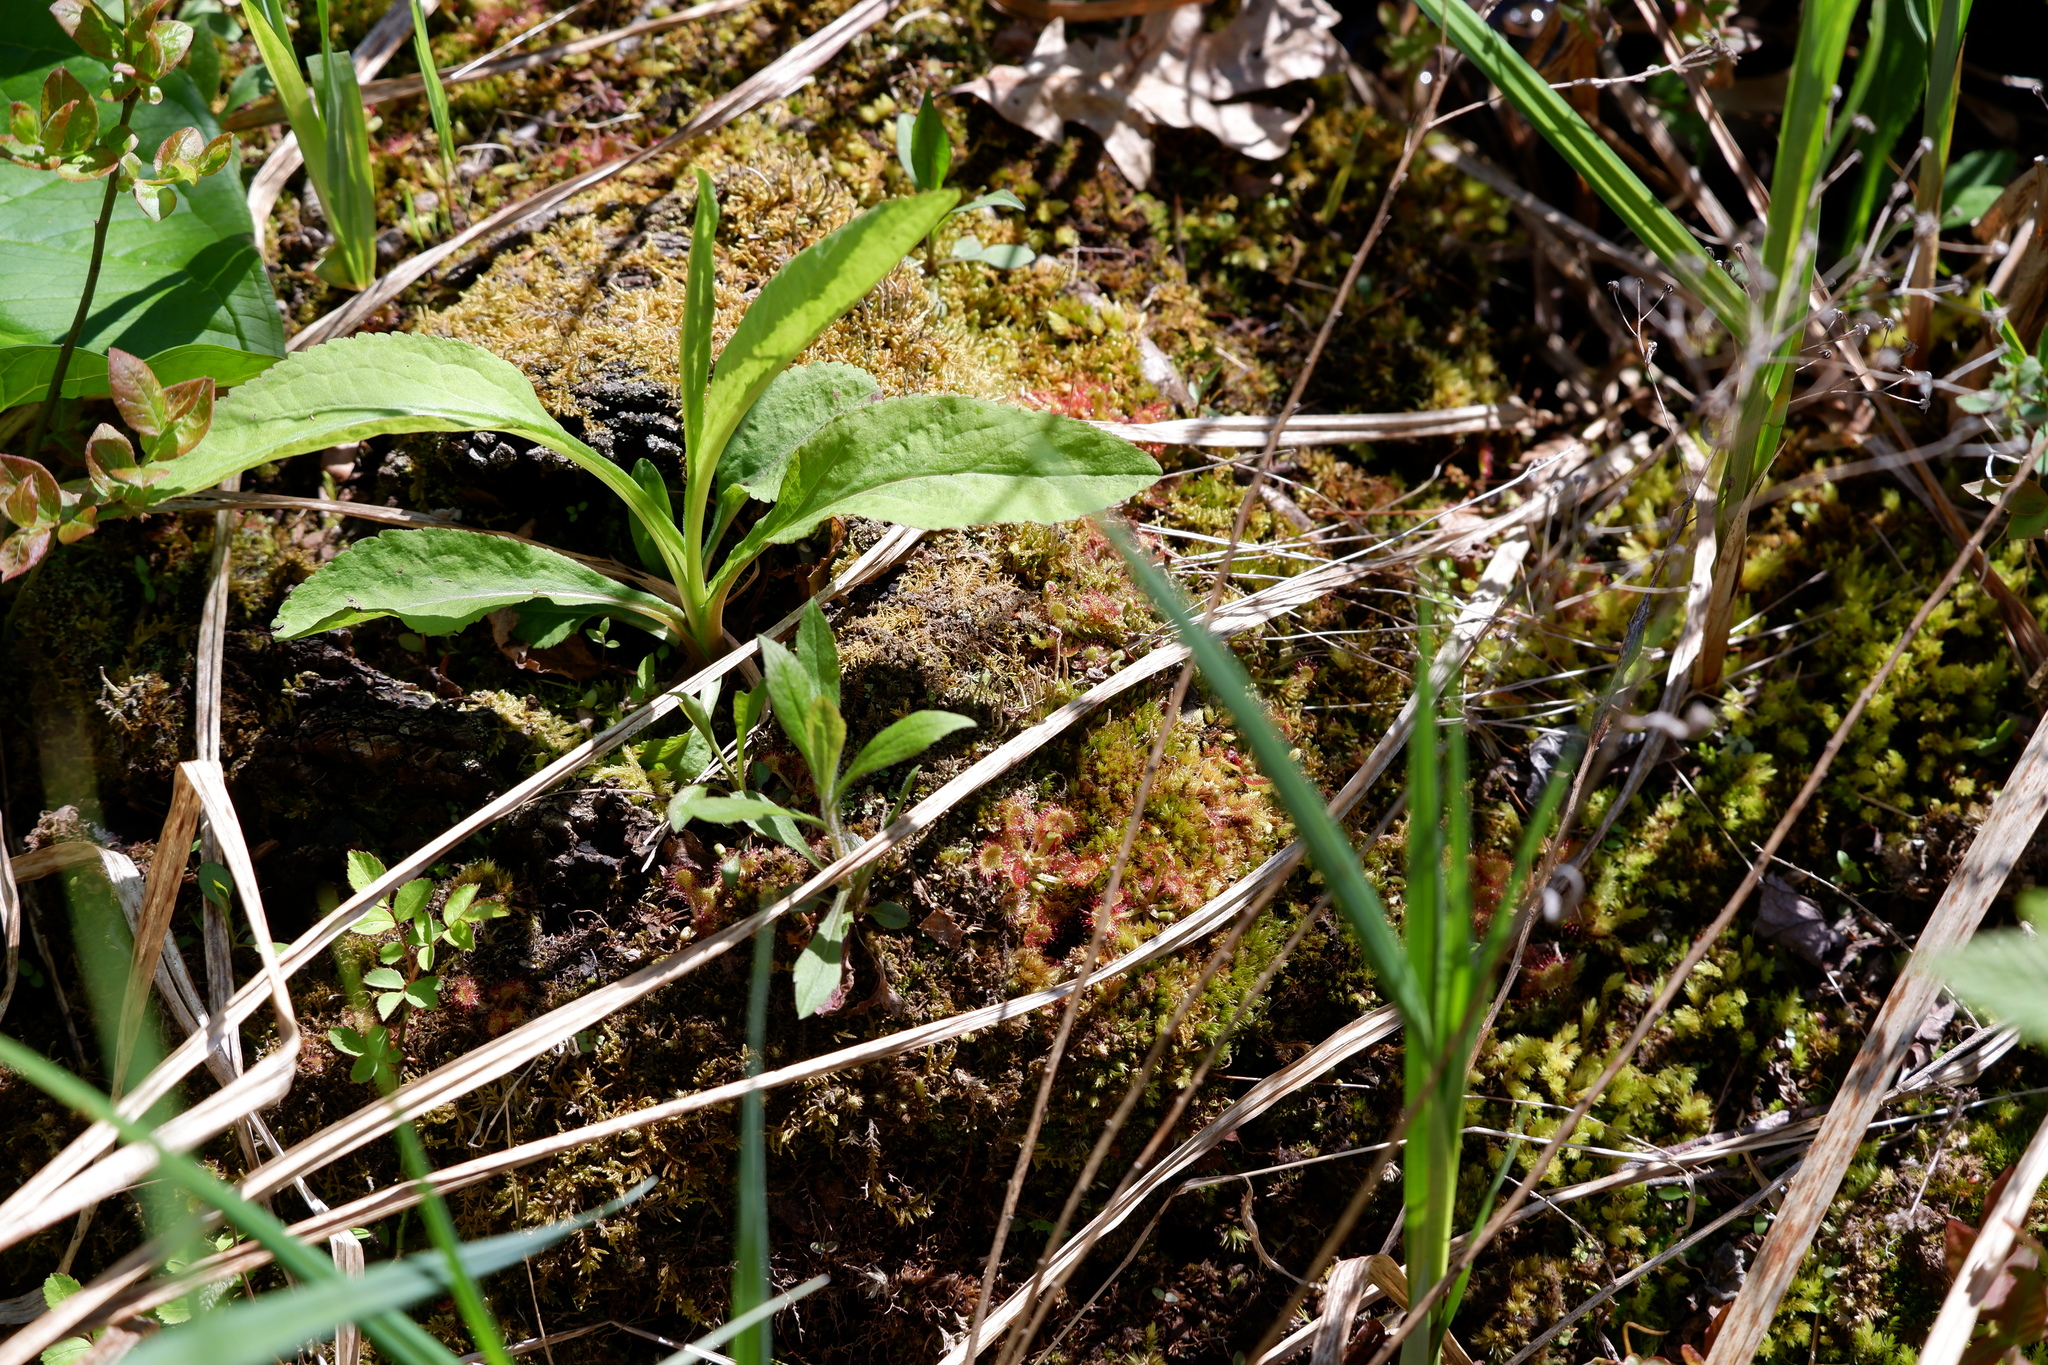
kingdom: Plantae
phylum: Tracheophyta
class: Magnoliopsida
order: Caryophyllales
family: Droseraceae
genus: Drosera
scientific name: Drosera rotundifolia
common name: Round-leaved sundew
